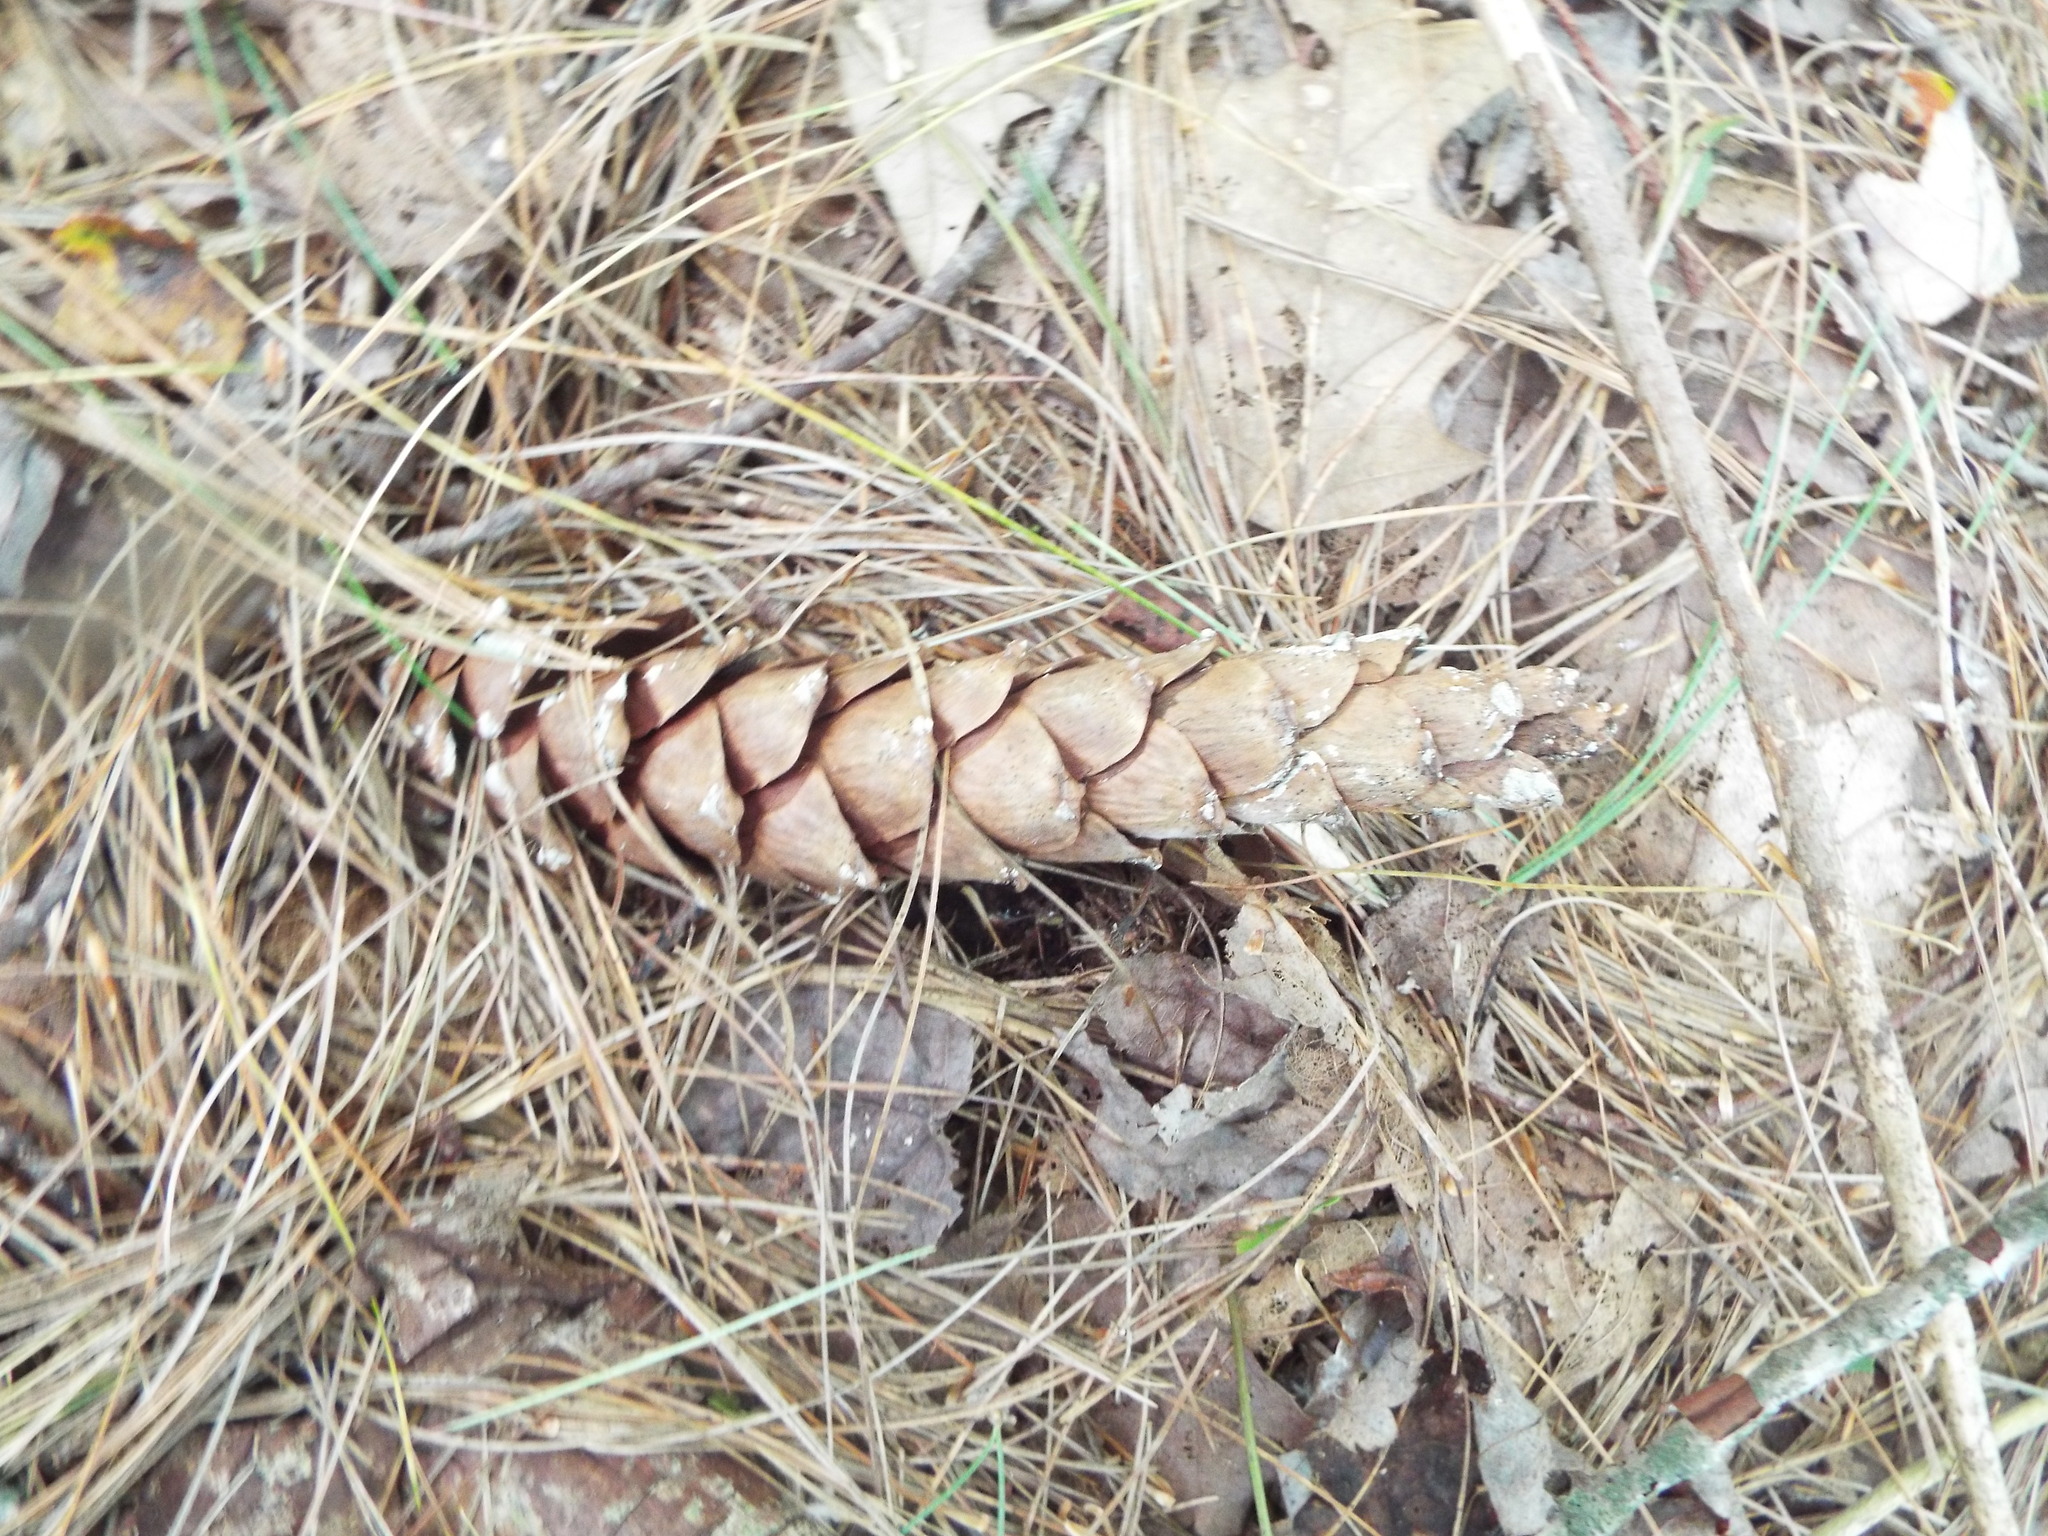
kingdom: Plantae
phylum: Tracheophyta
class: Pinopsida
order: Pinales
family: Pinaceae
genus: Pinus
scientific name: Pinus strobus
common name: Weymouth pine
